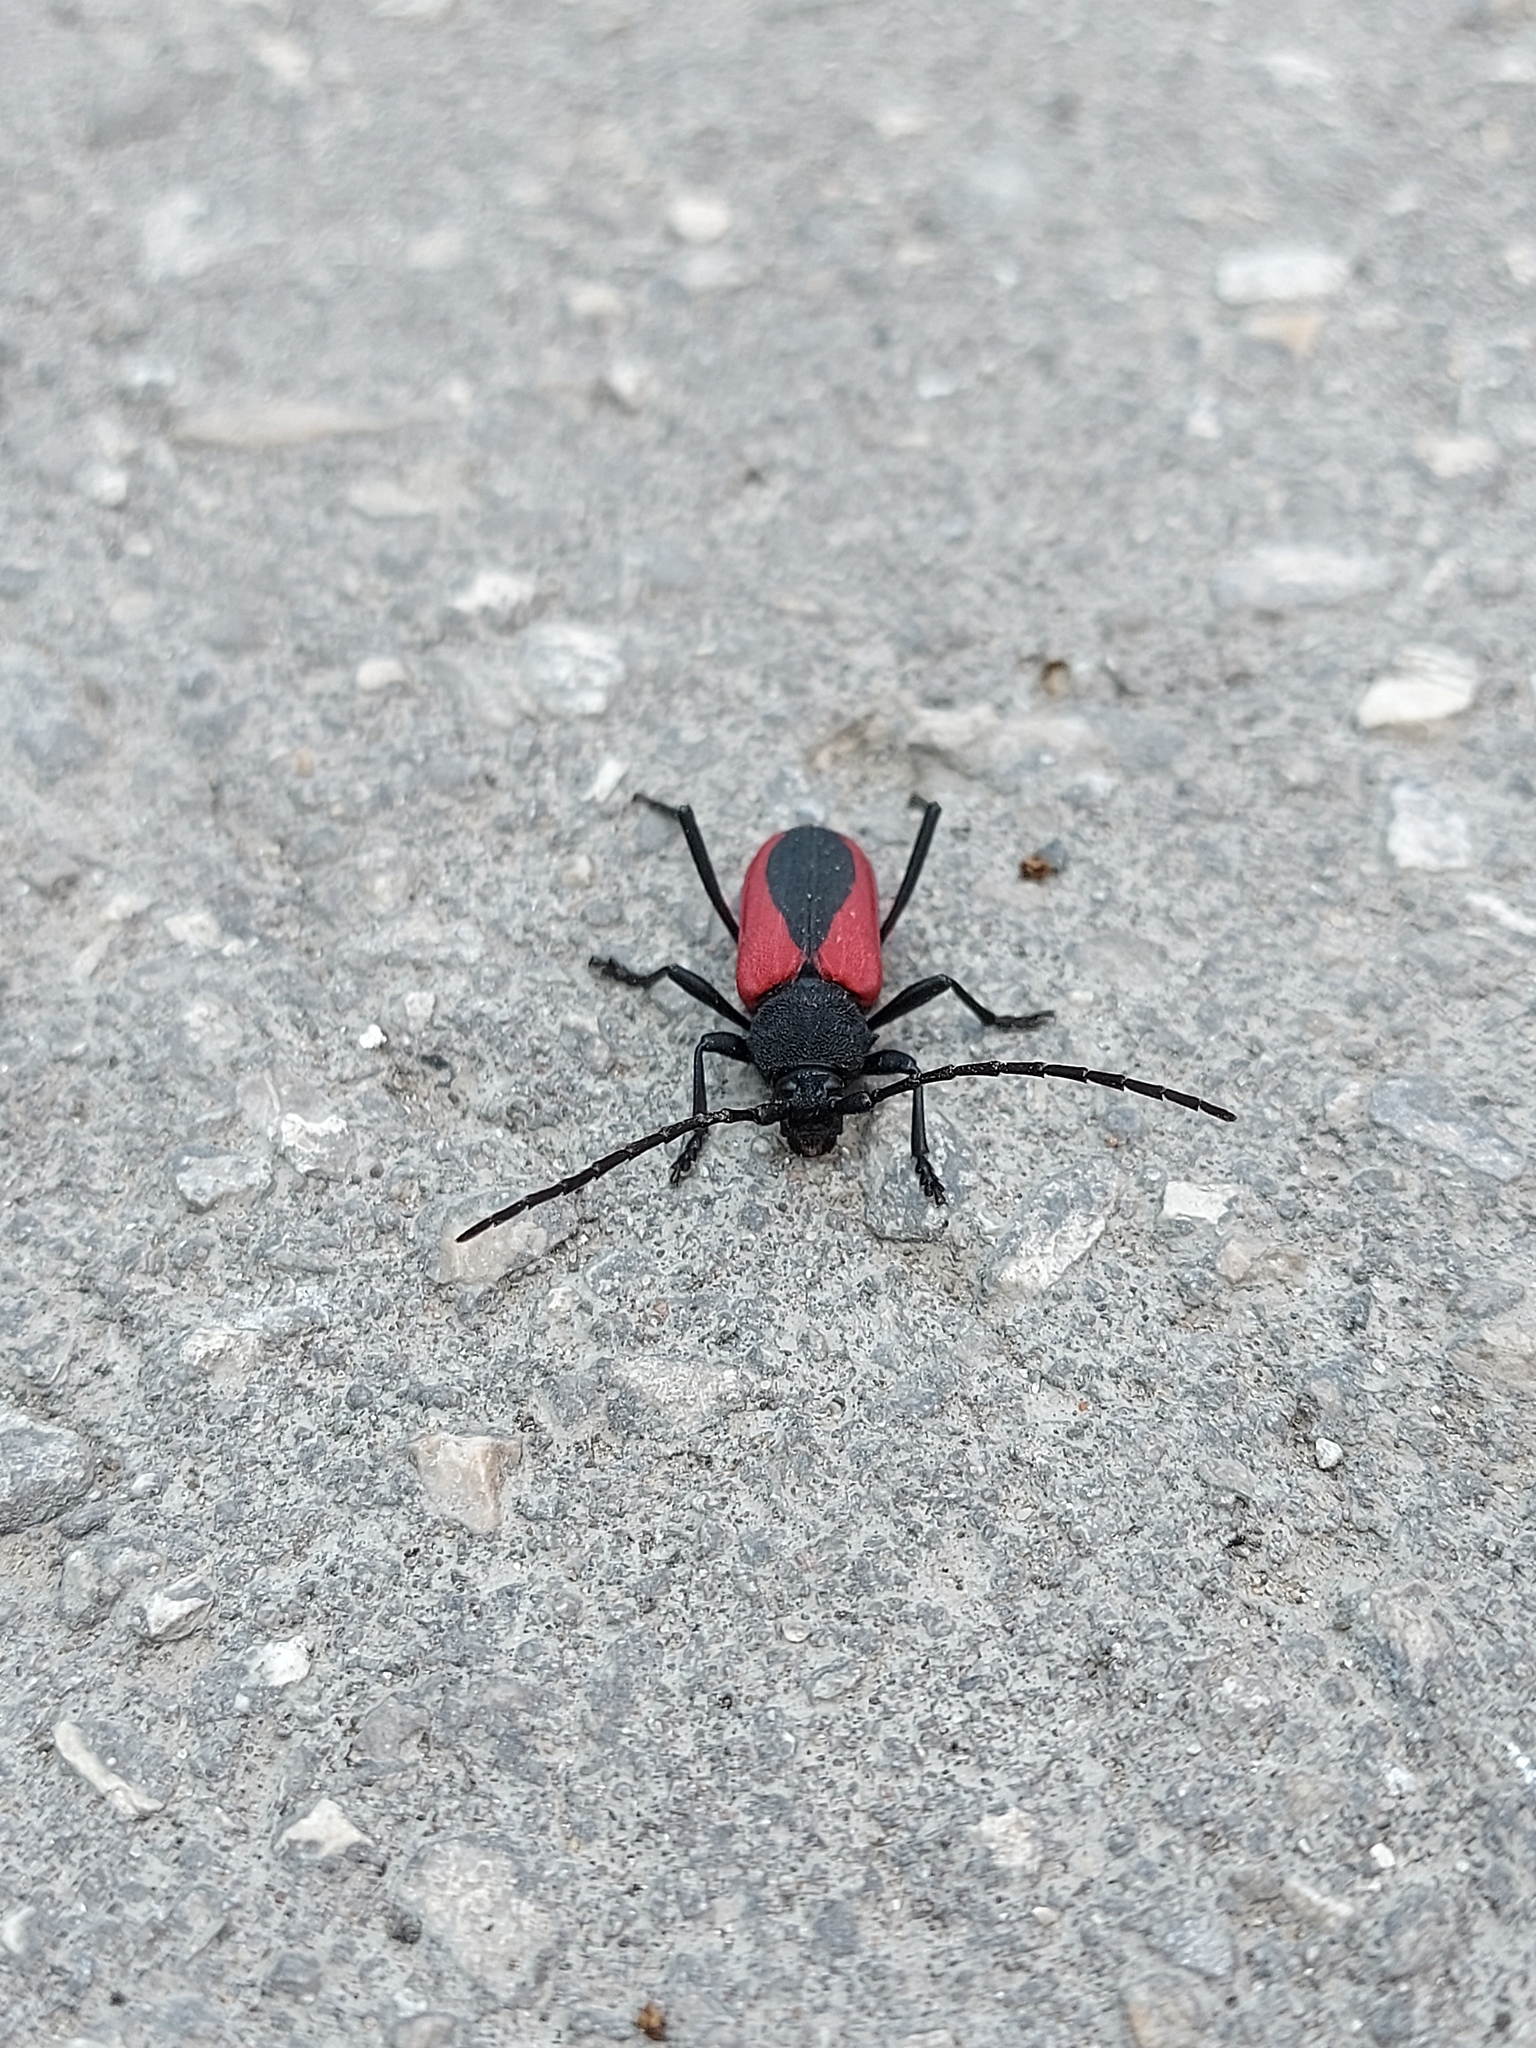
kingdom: Animalia
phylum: Arthropoda
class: Insecta
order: Coleoptera
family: Cerambycidae
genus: Purpuricenus
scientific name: Purpuricenus kaehleri
